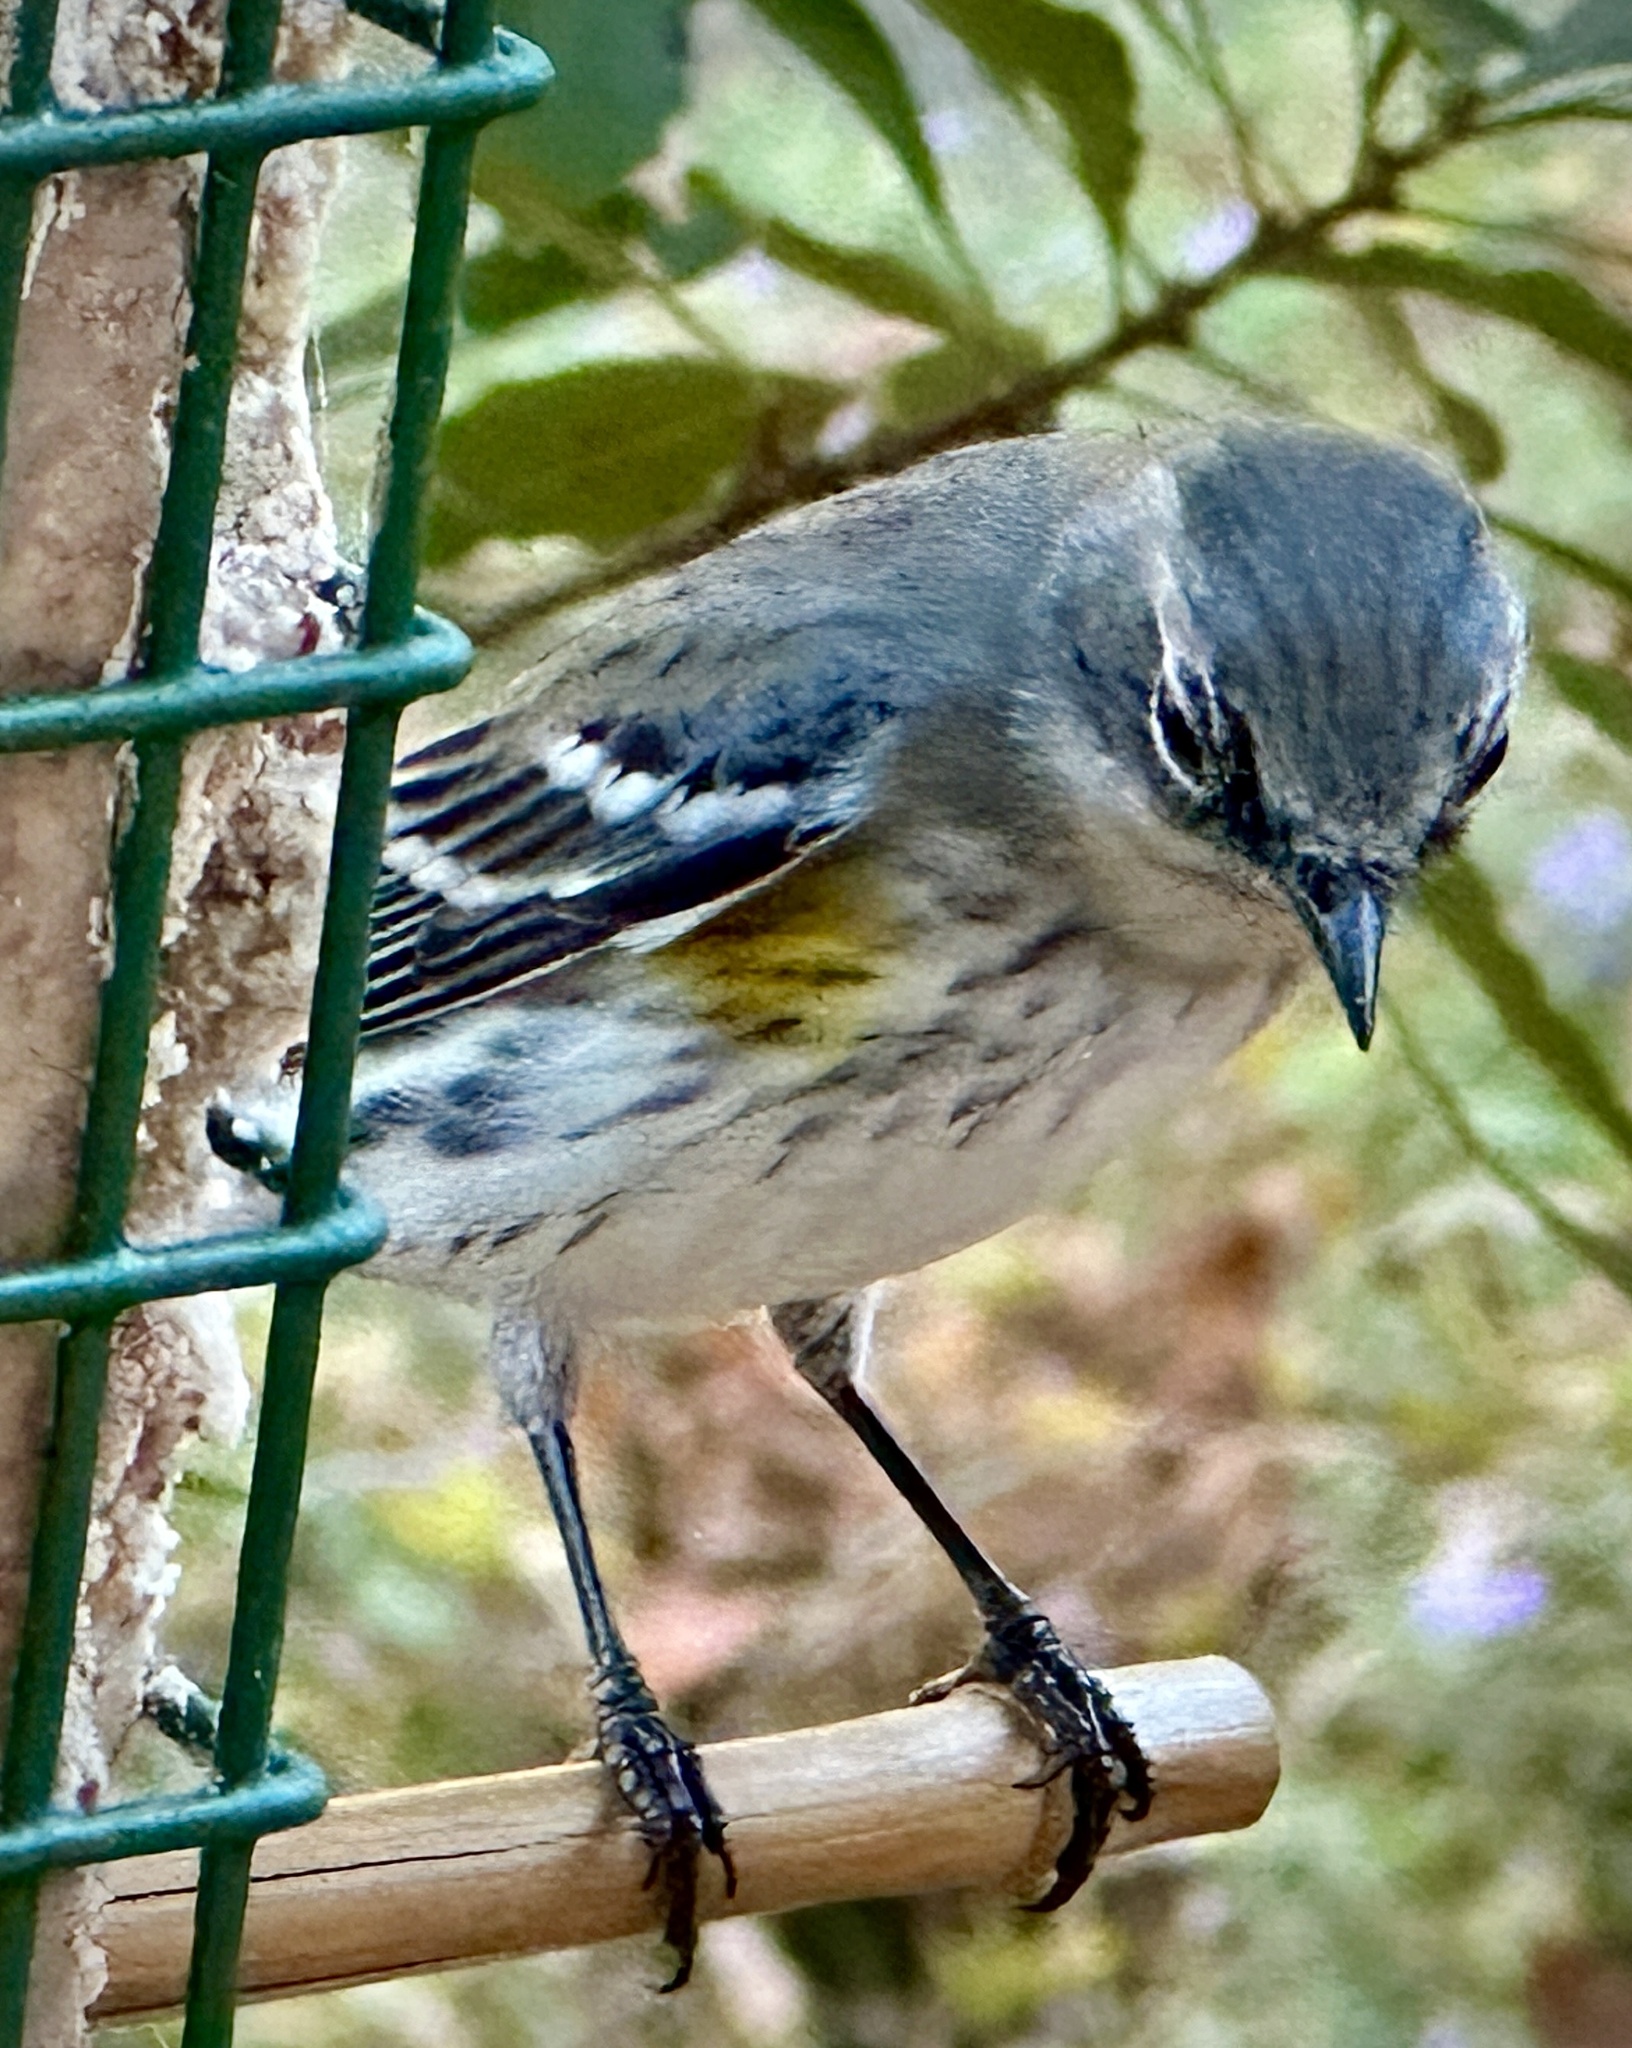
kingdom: Animalia
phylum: Chordata
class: Aves
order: Passeriformes
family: Parulidae
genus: Setophaga
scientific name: Setophaga coronata
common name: Myrtle warbler
